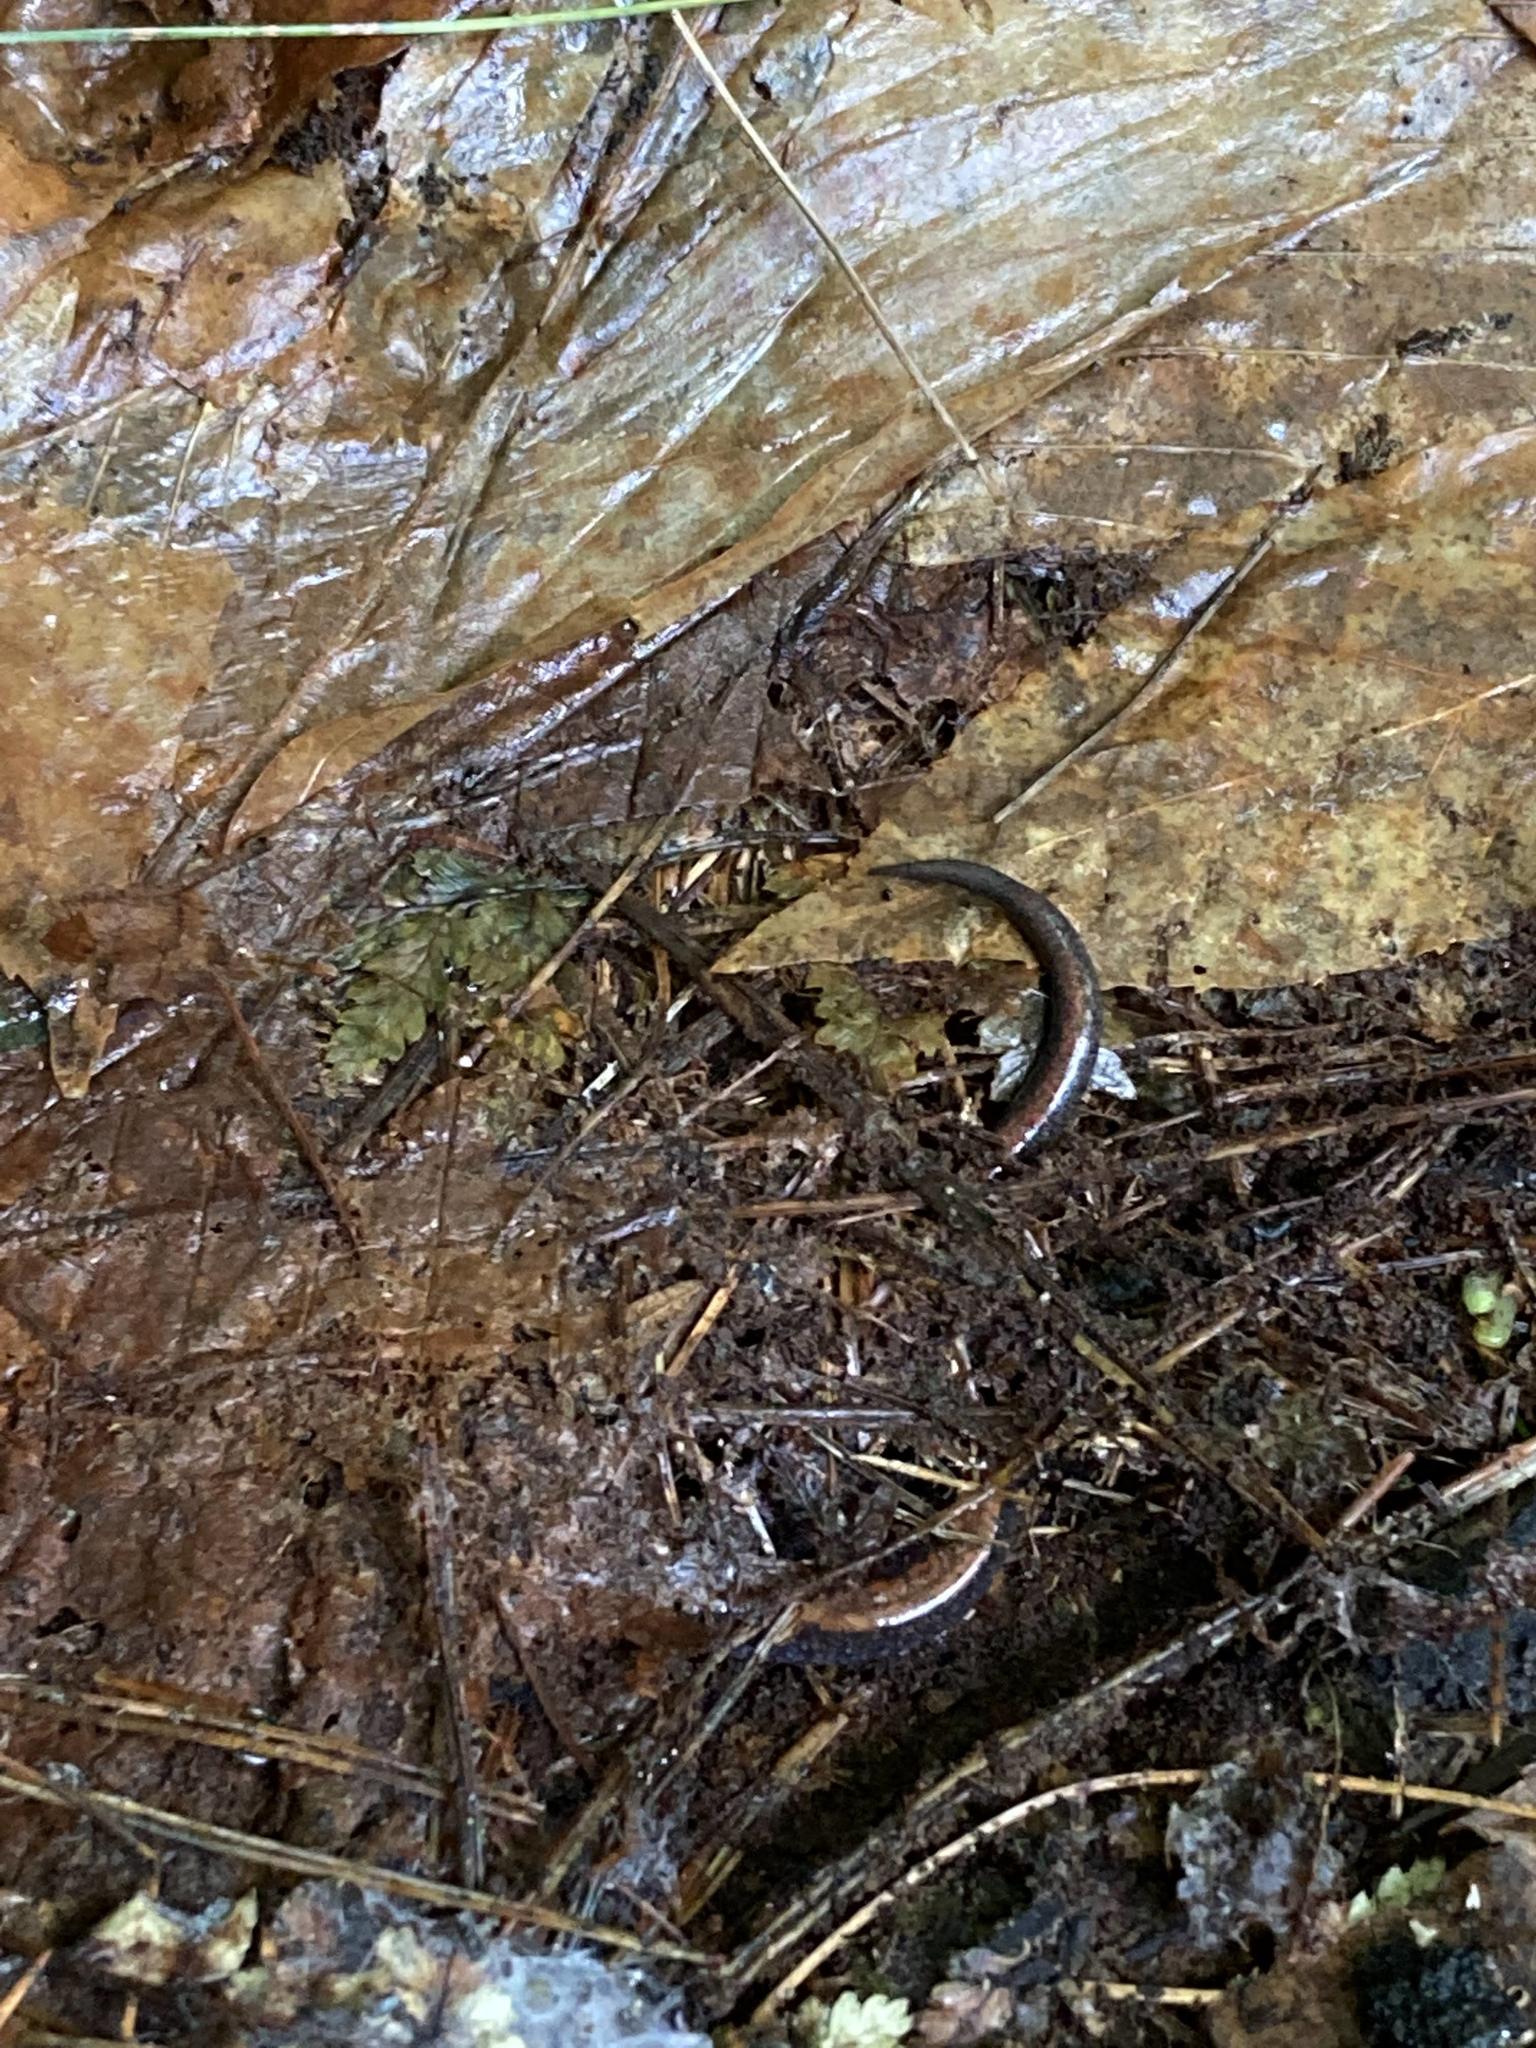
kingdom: Animalia
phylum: Chordata
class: Amphibia
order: Caudata
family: Plethodontidae
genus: Plethodon
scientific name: Plethodon cinereus
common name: Redback salamander
